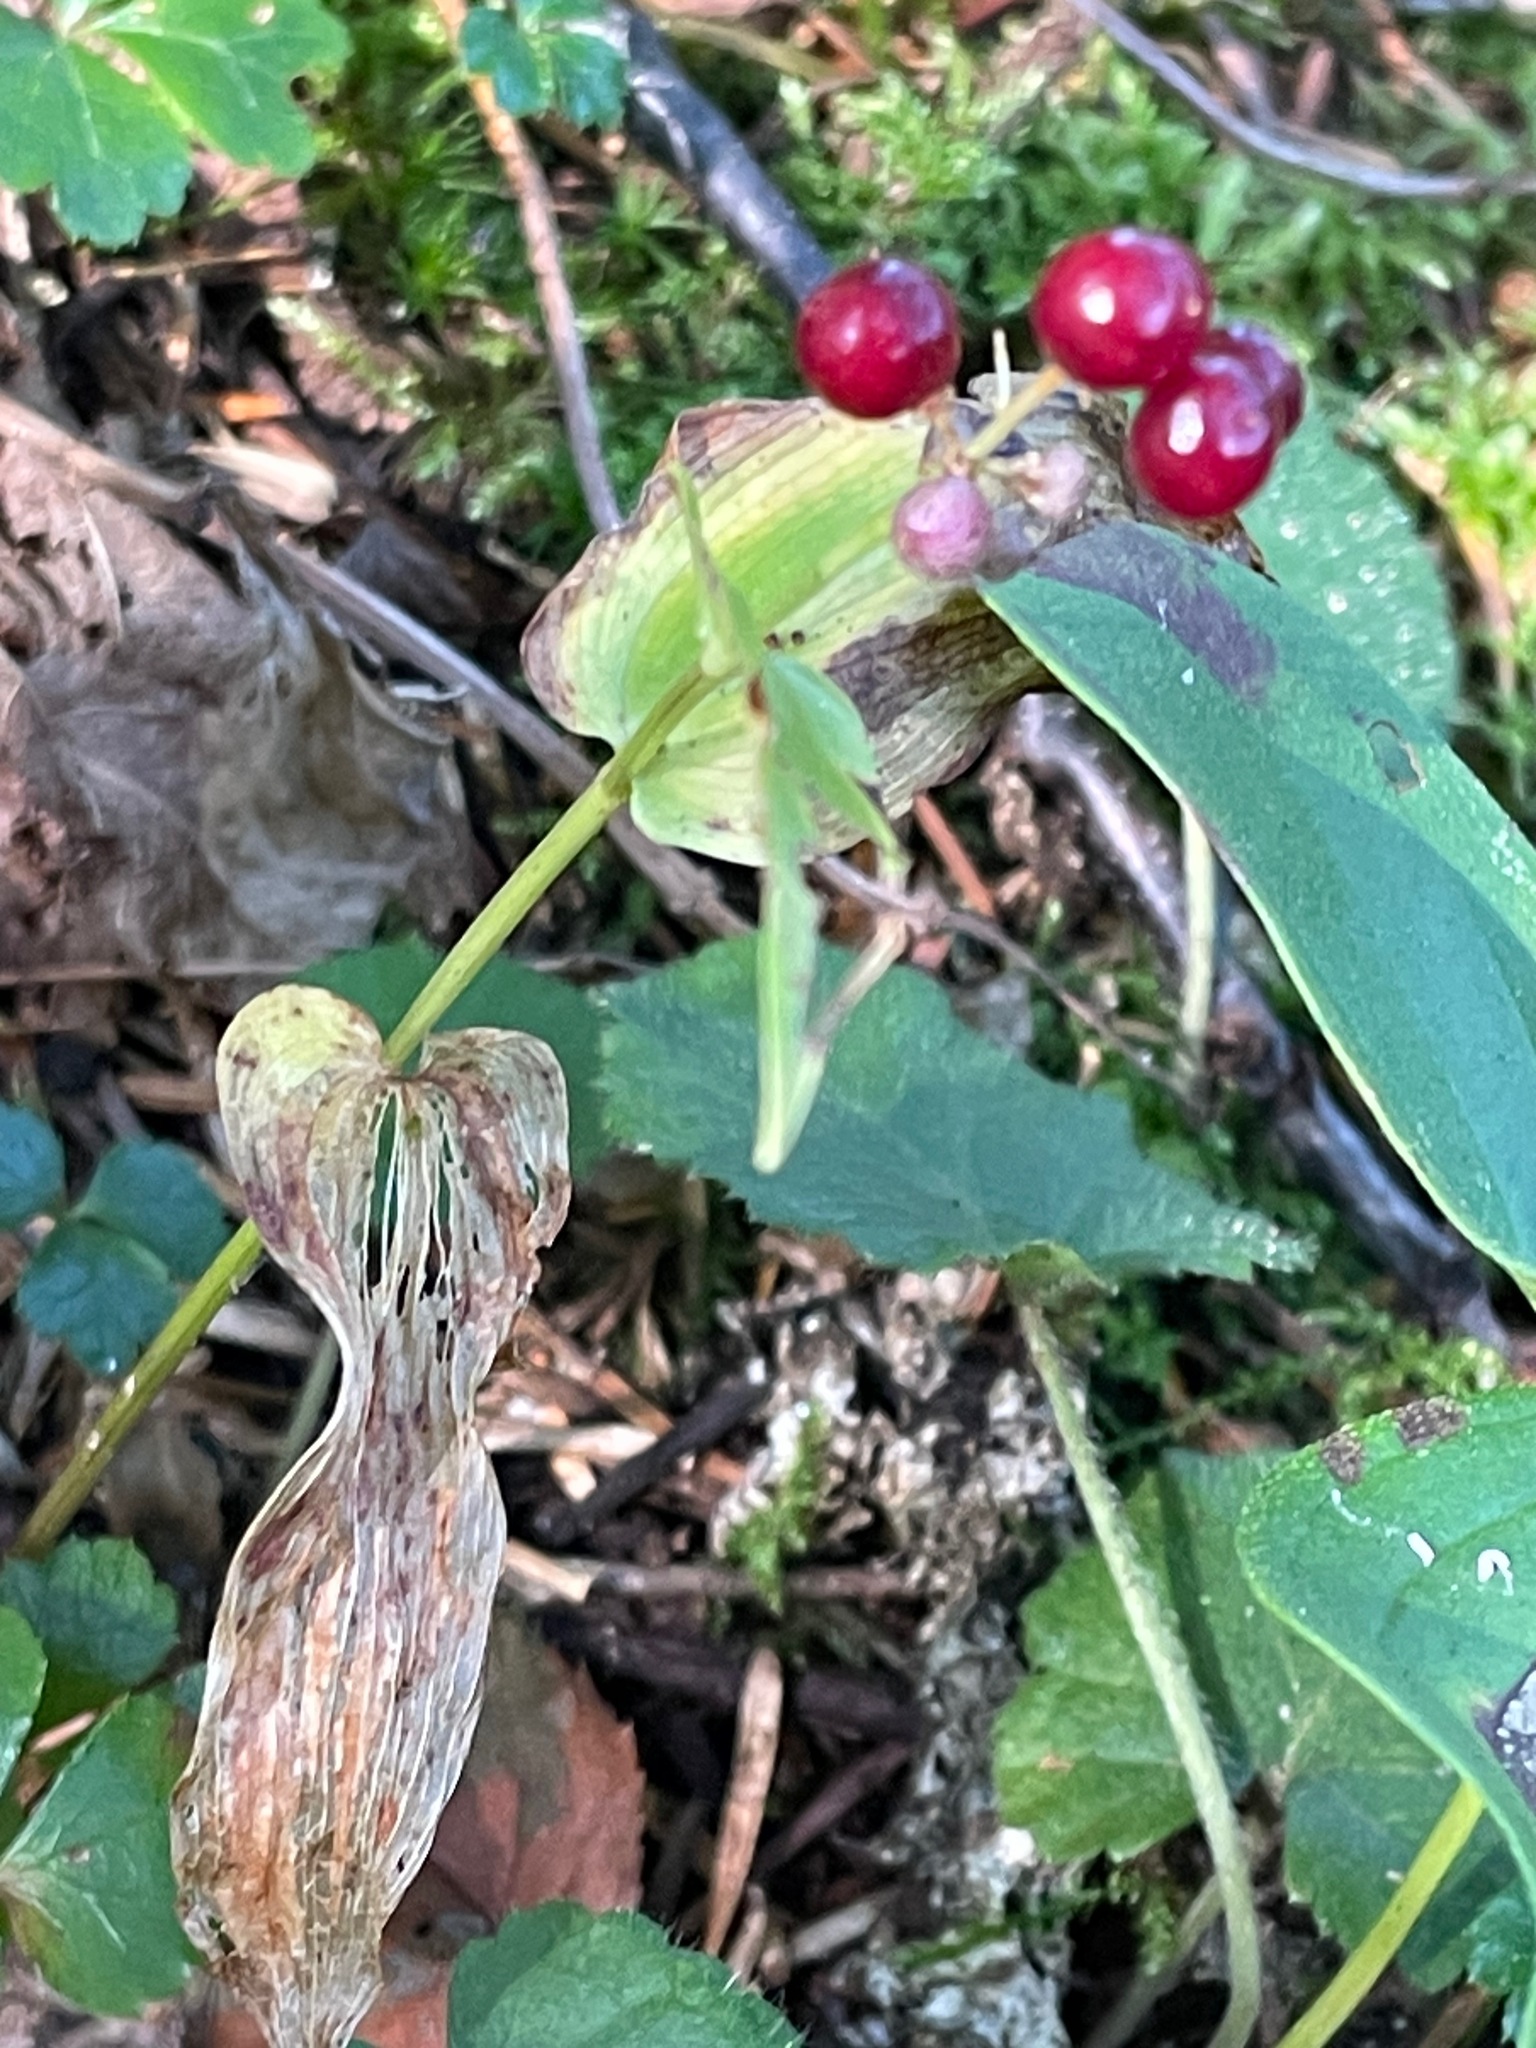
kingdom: Plantae
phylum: Tracheophyta
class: Liliopsida
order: Asparagales
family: Asparagaceae
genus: Maianthemum
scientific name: Maianthemum canadense
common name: False lily-of-the-valley
